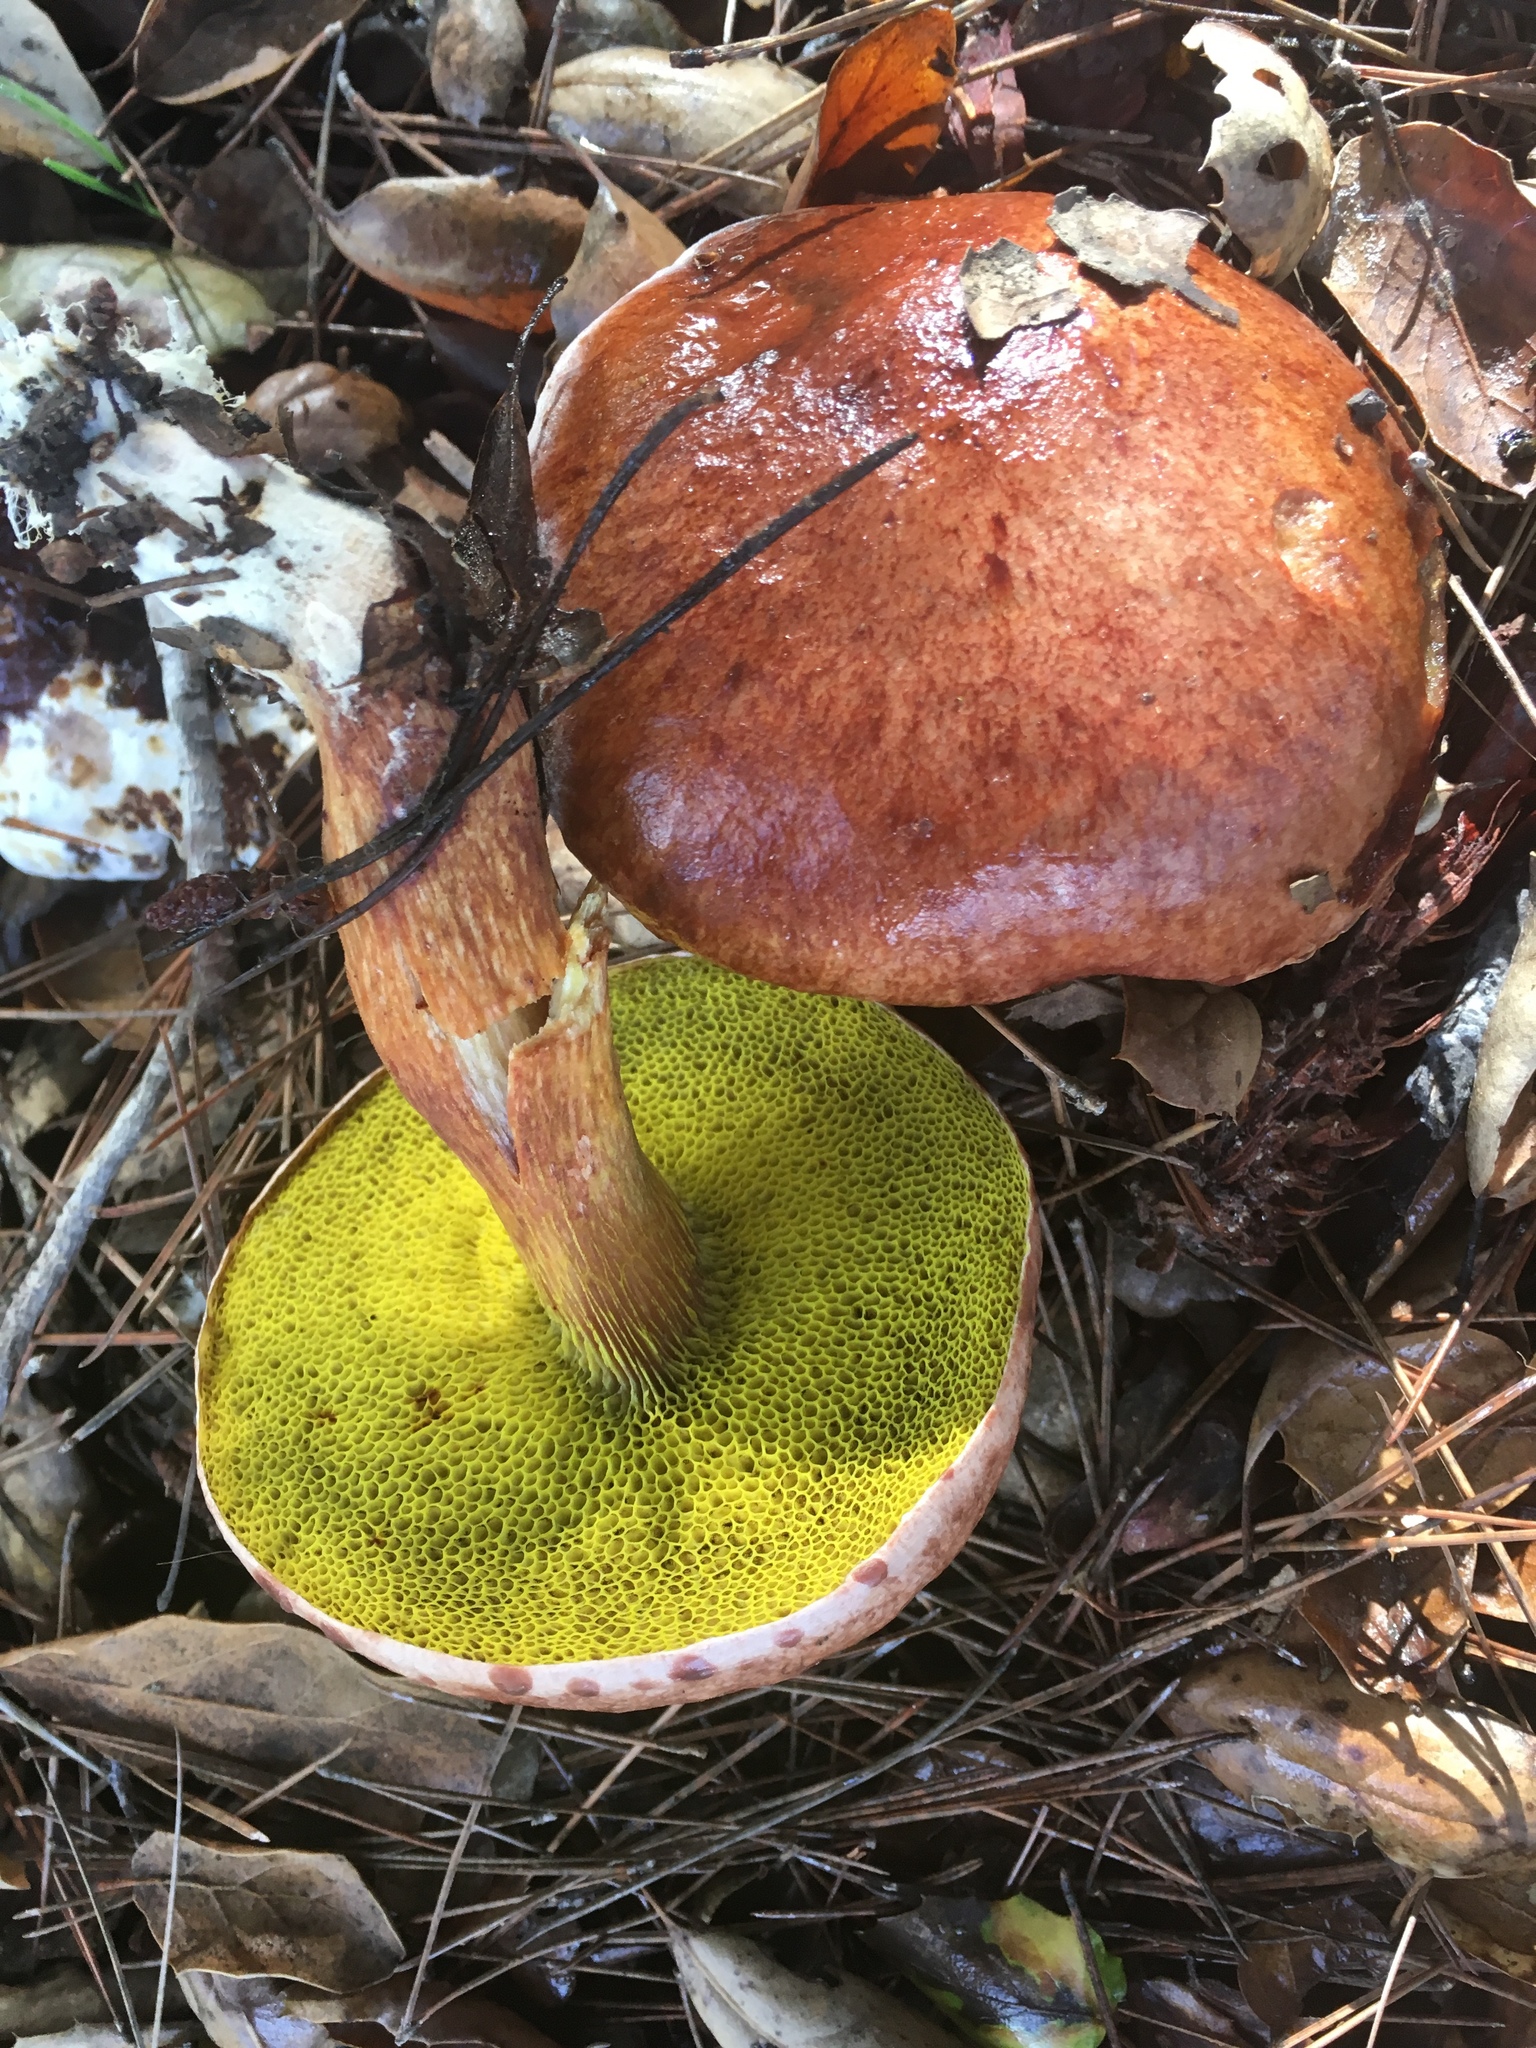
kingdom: Fungi
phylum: Basidiomycota
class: Agaricomycetes
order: Boletales
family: Boletaceae
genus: Aureoboletus
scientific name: Aureoboletus flaviporus
